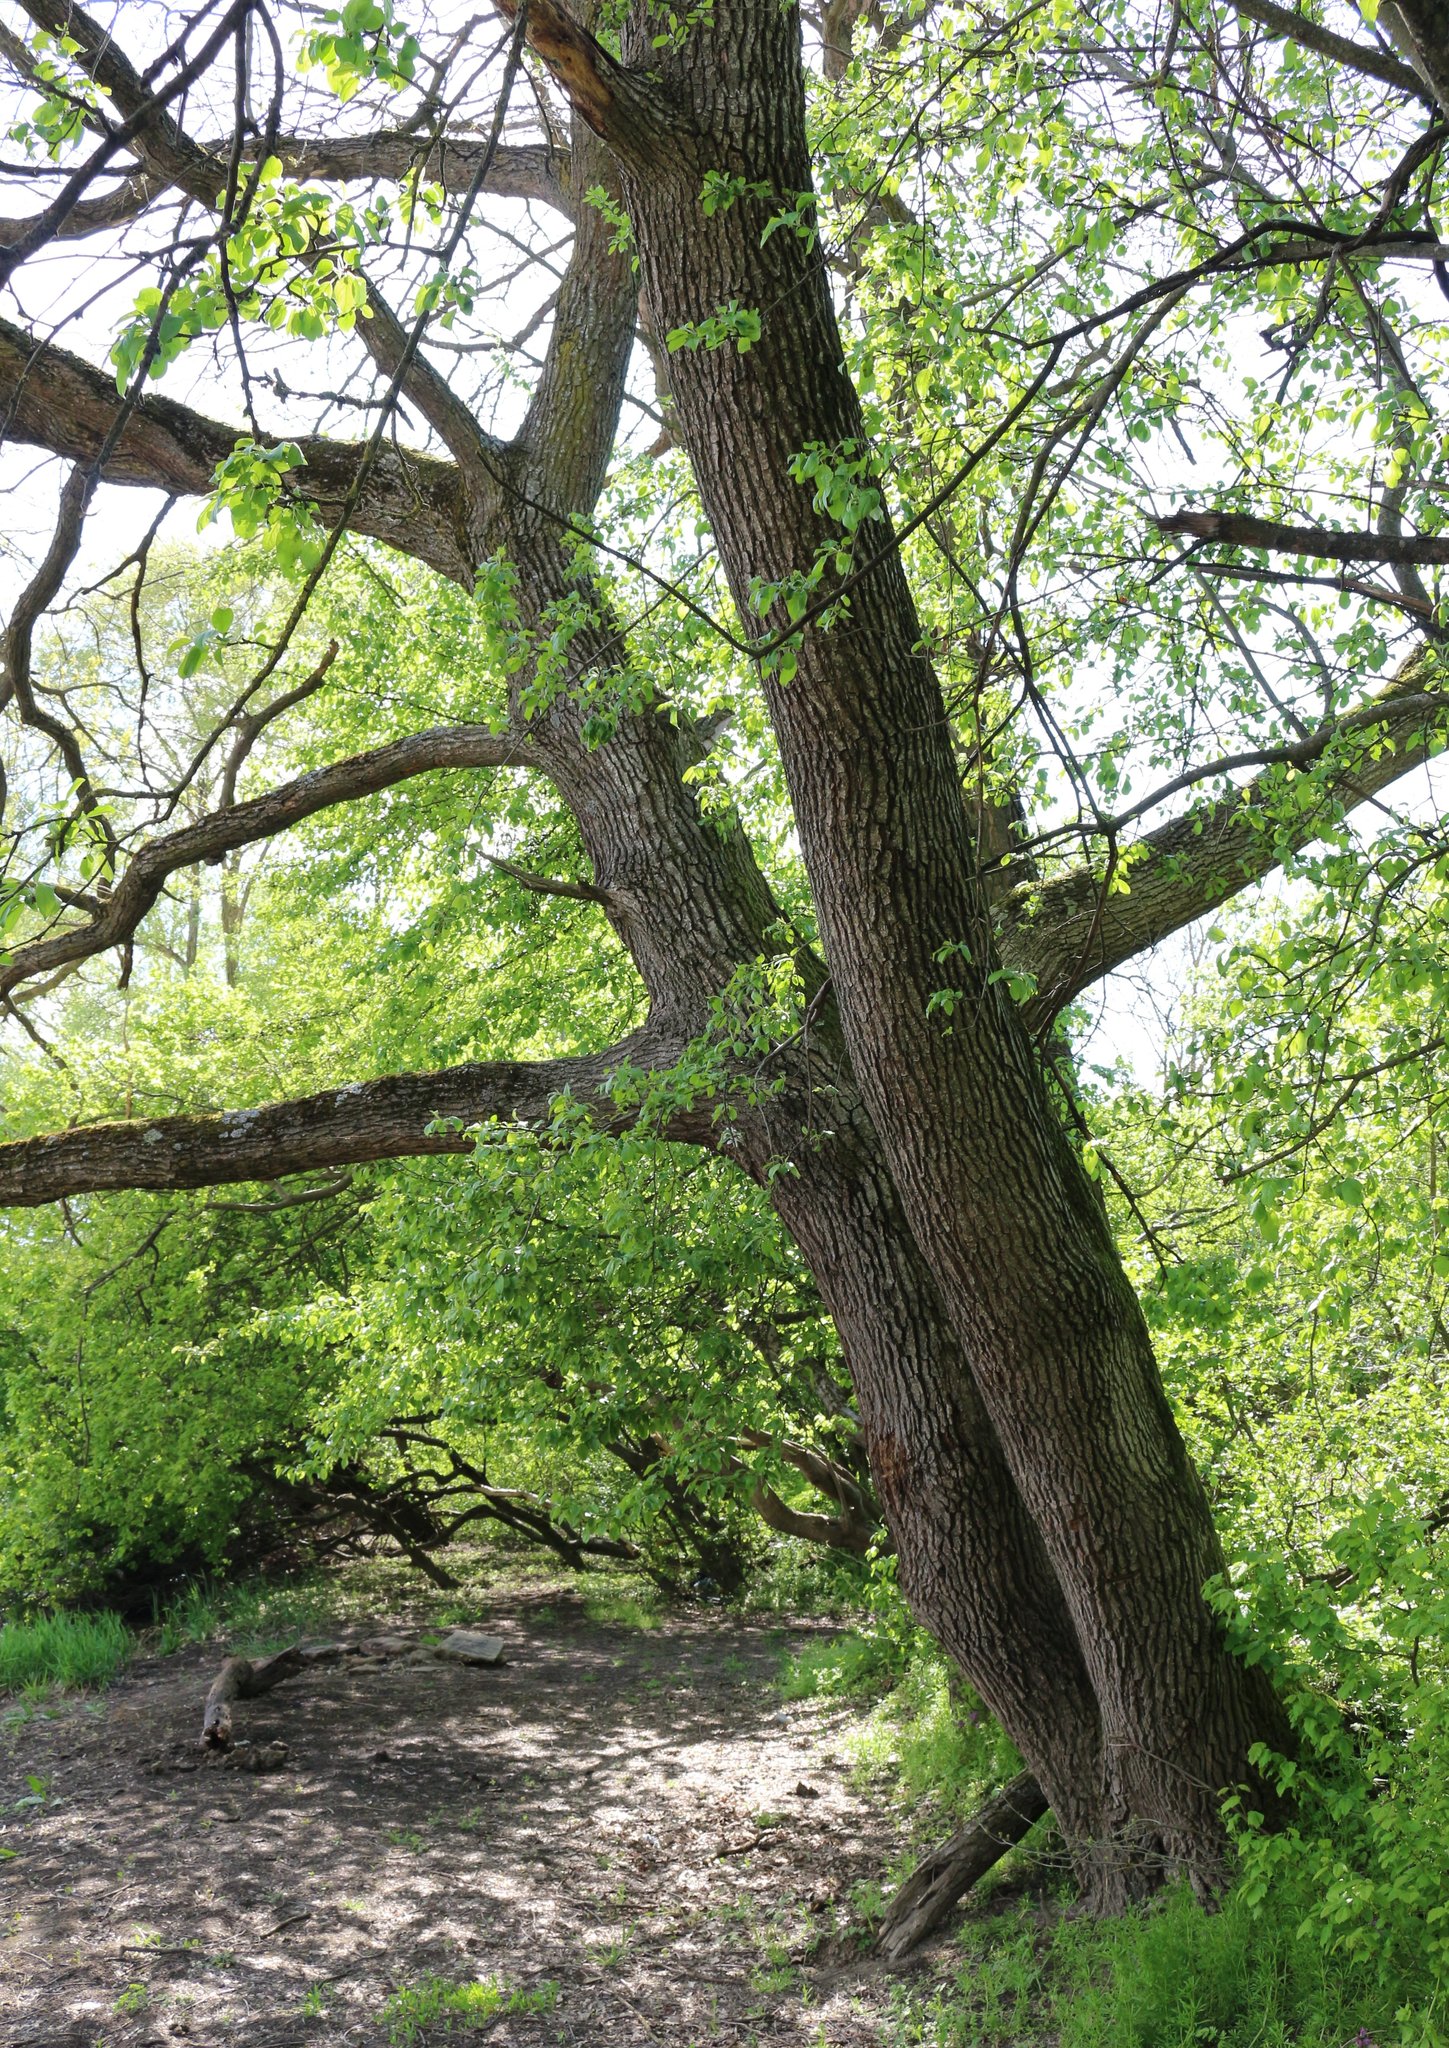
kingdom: Plantae
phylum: Tracheophyta
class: Magnoliopsida
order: Fagales
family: Fagaceae
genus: Quercus
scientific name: Quercus robur
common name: Pedunculate oak
